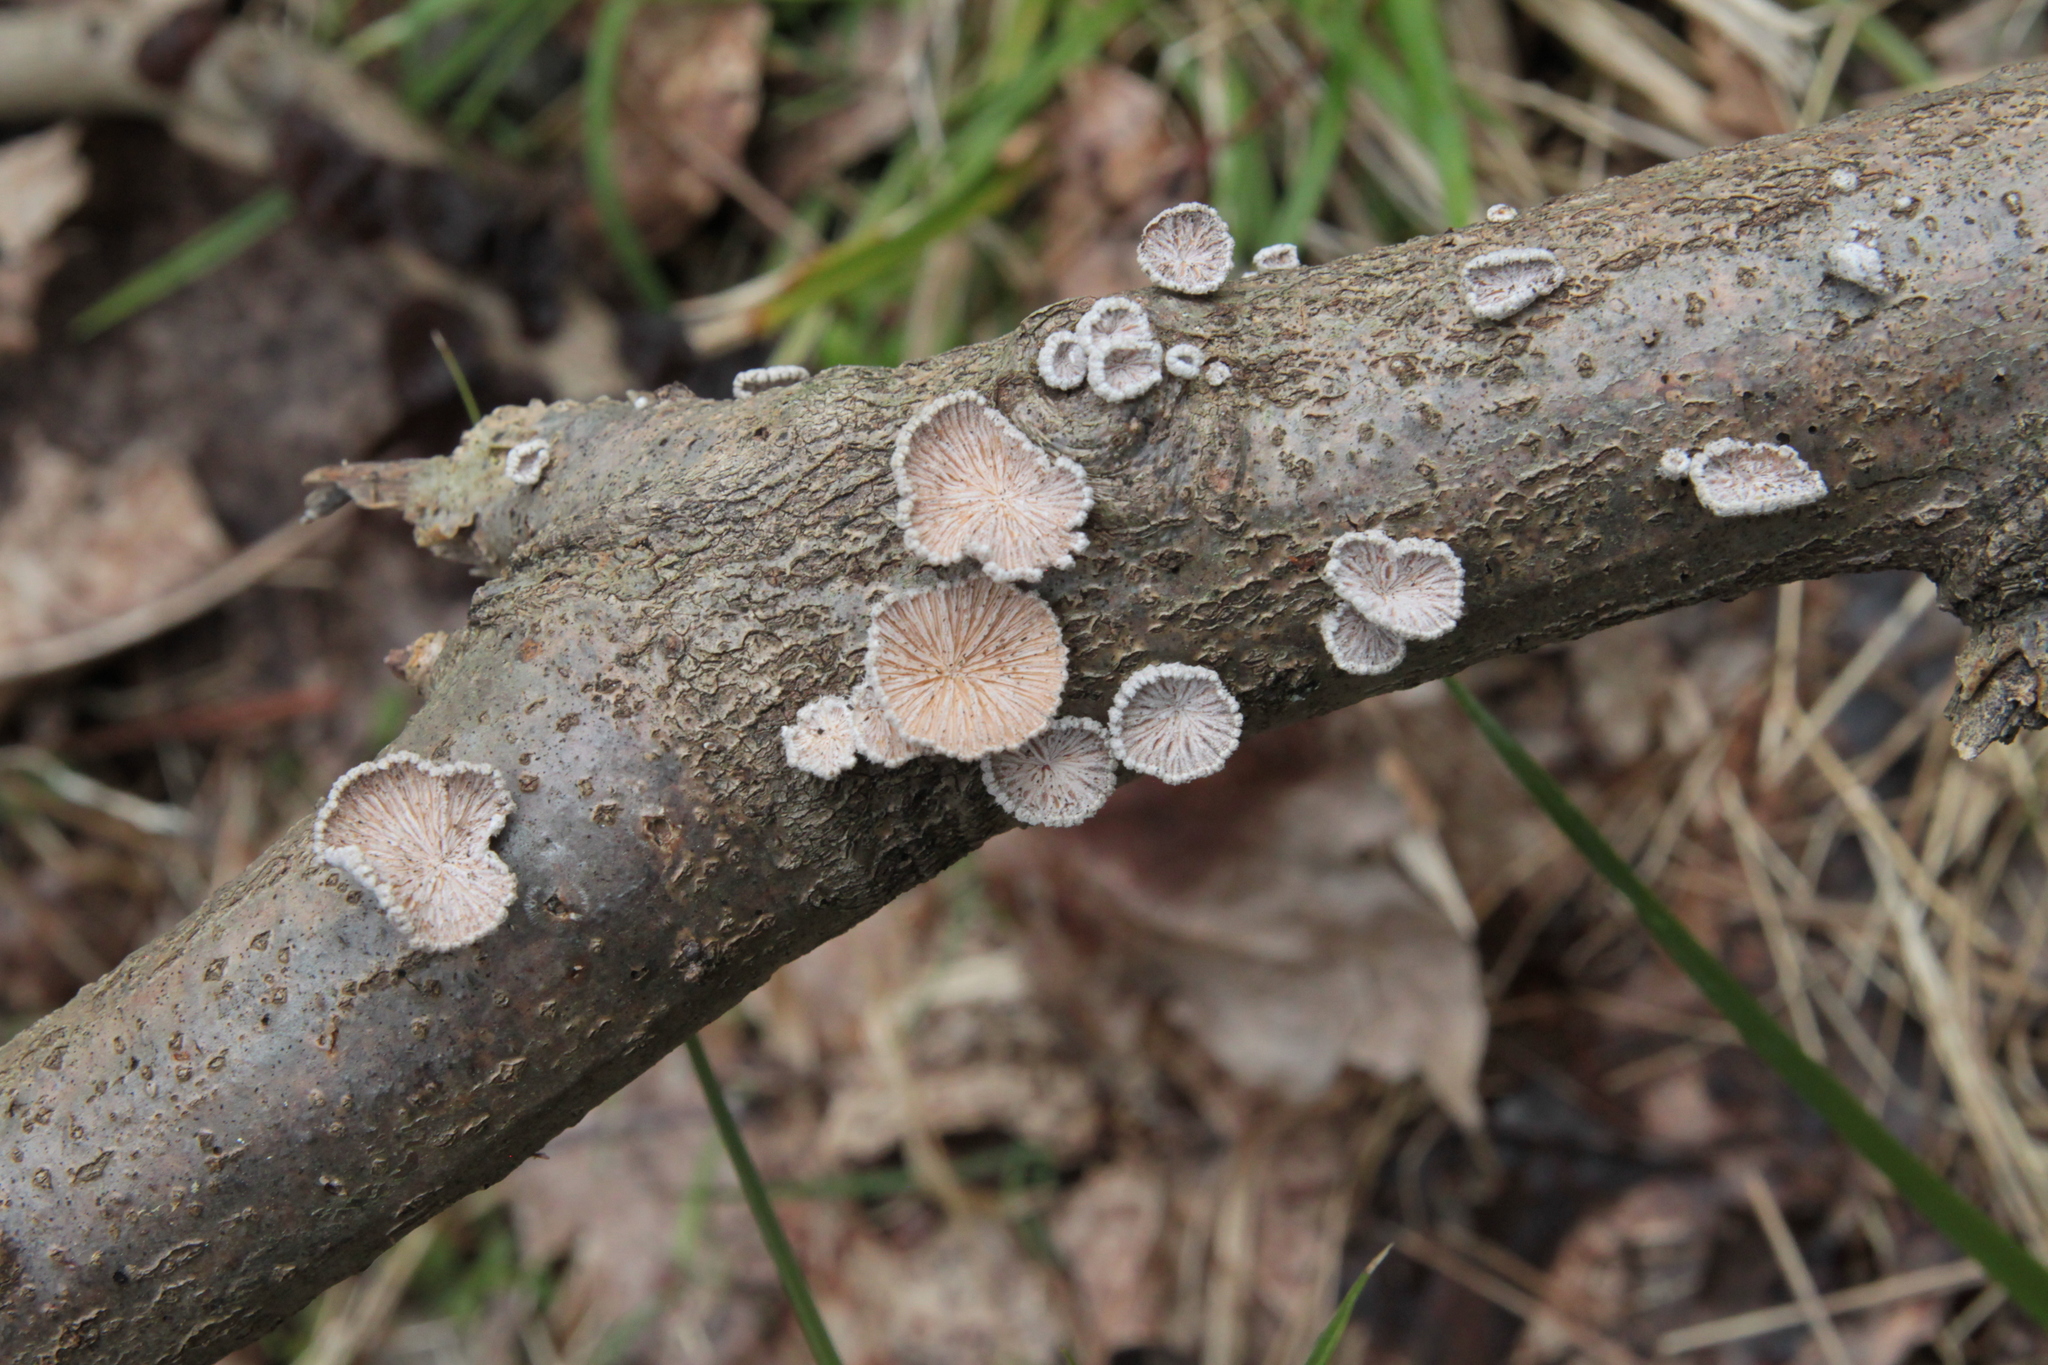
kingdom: Fungi
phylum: Basidiomycota
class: Agaricomycetes
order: Agaricales
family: Schizophyllaceae
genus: Schizophyllum
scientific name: Schizophyllum commune
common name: Common porecrust
